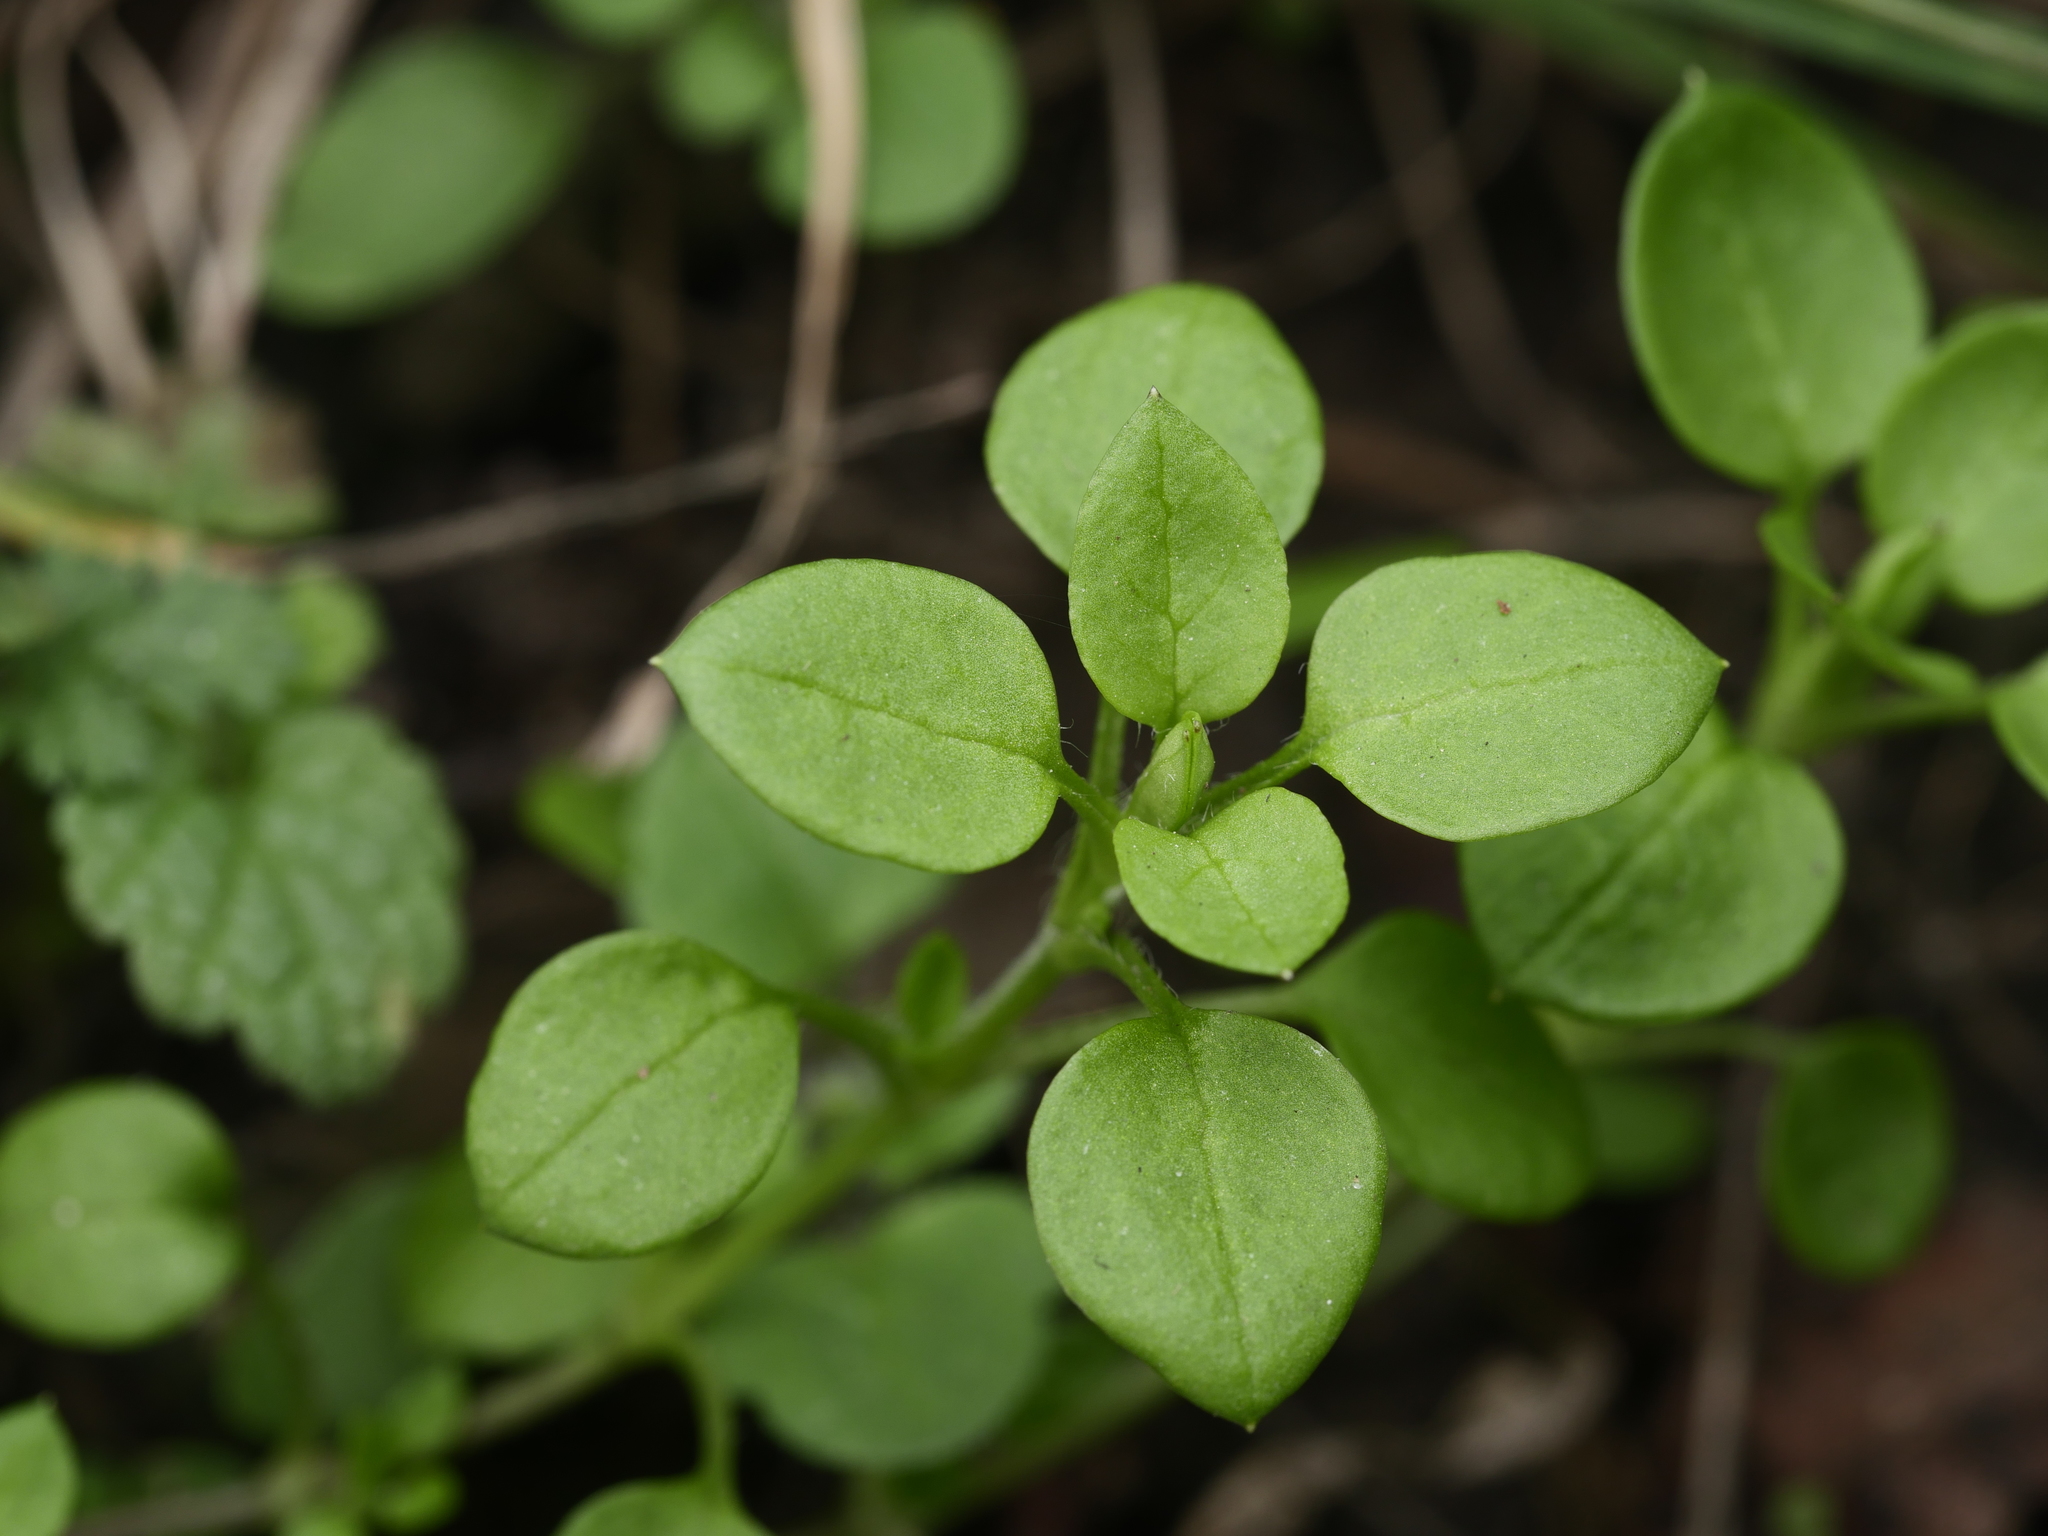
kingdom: Plantae
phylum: Tracheophyta
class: Magnoliopsida
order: Caryophyllales
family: Caryophyllaceae
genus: Stellaria
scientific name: Stellaria media
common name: Common chickweed
